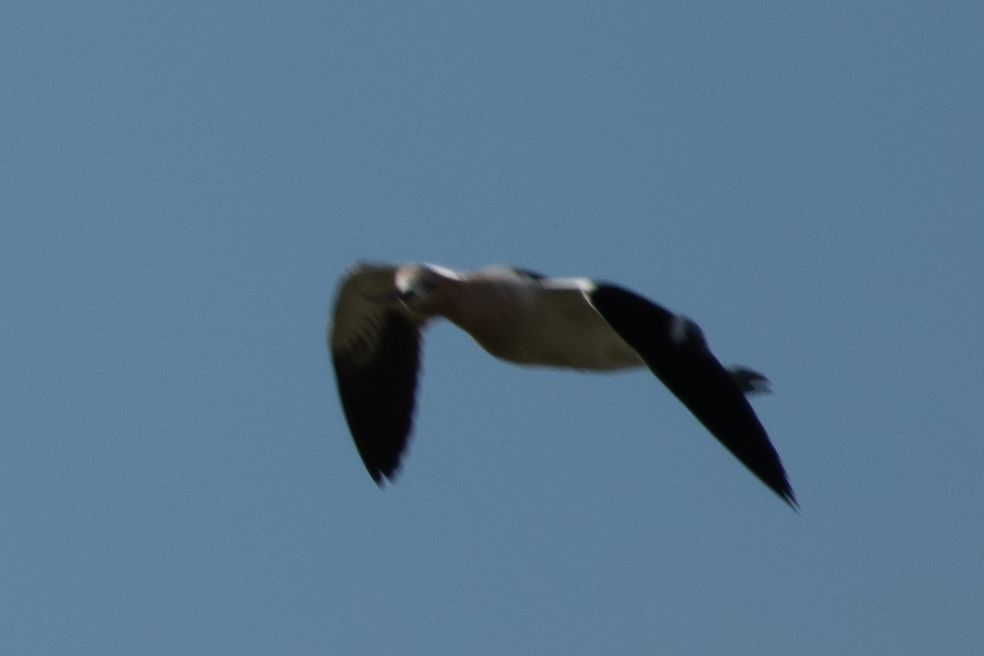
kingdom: Animalia
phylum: Chordata
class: Aves
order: Charadriiformes
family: Recurvirostridae
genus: Recurvirostra
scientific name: Recurvirostra americana
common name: American avocet
